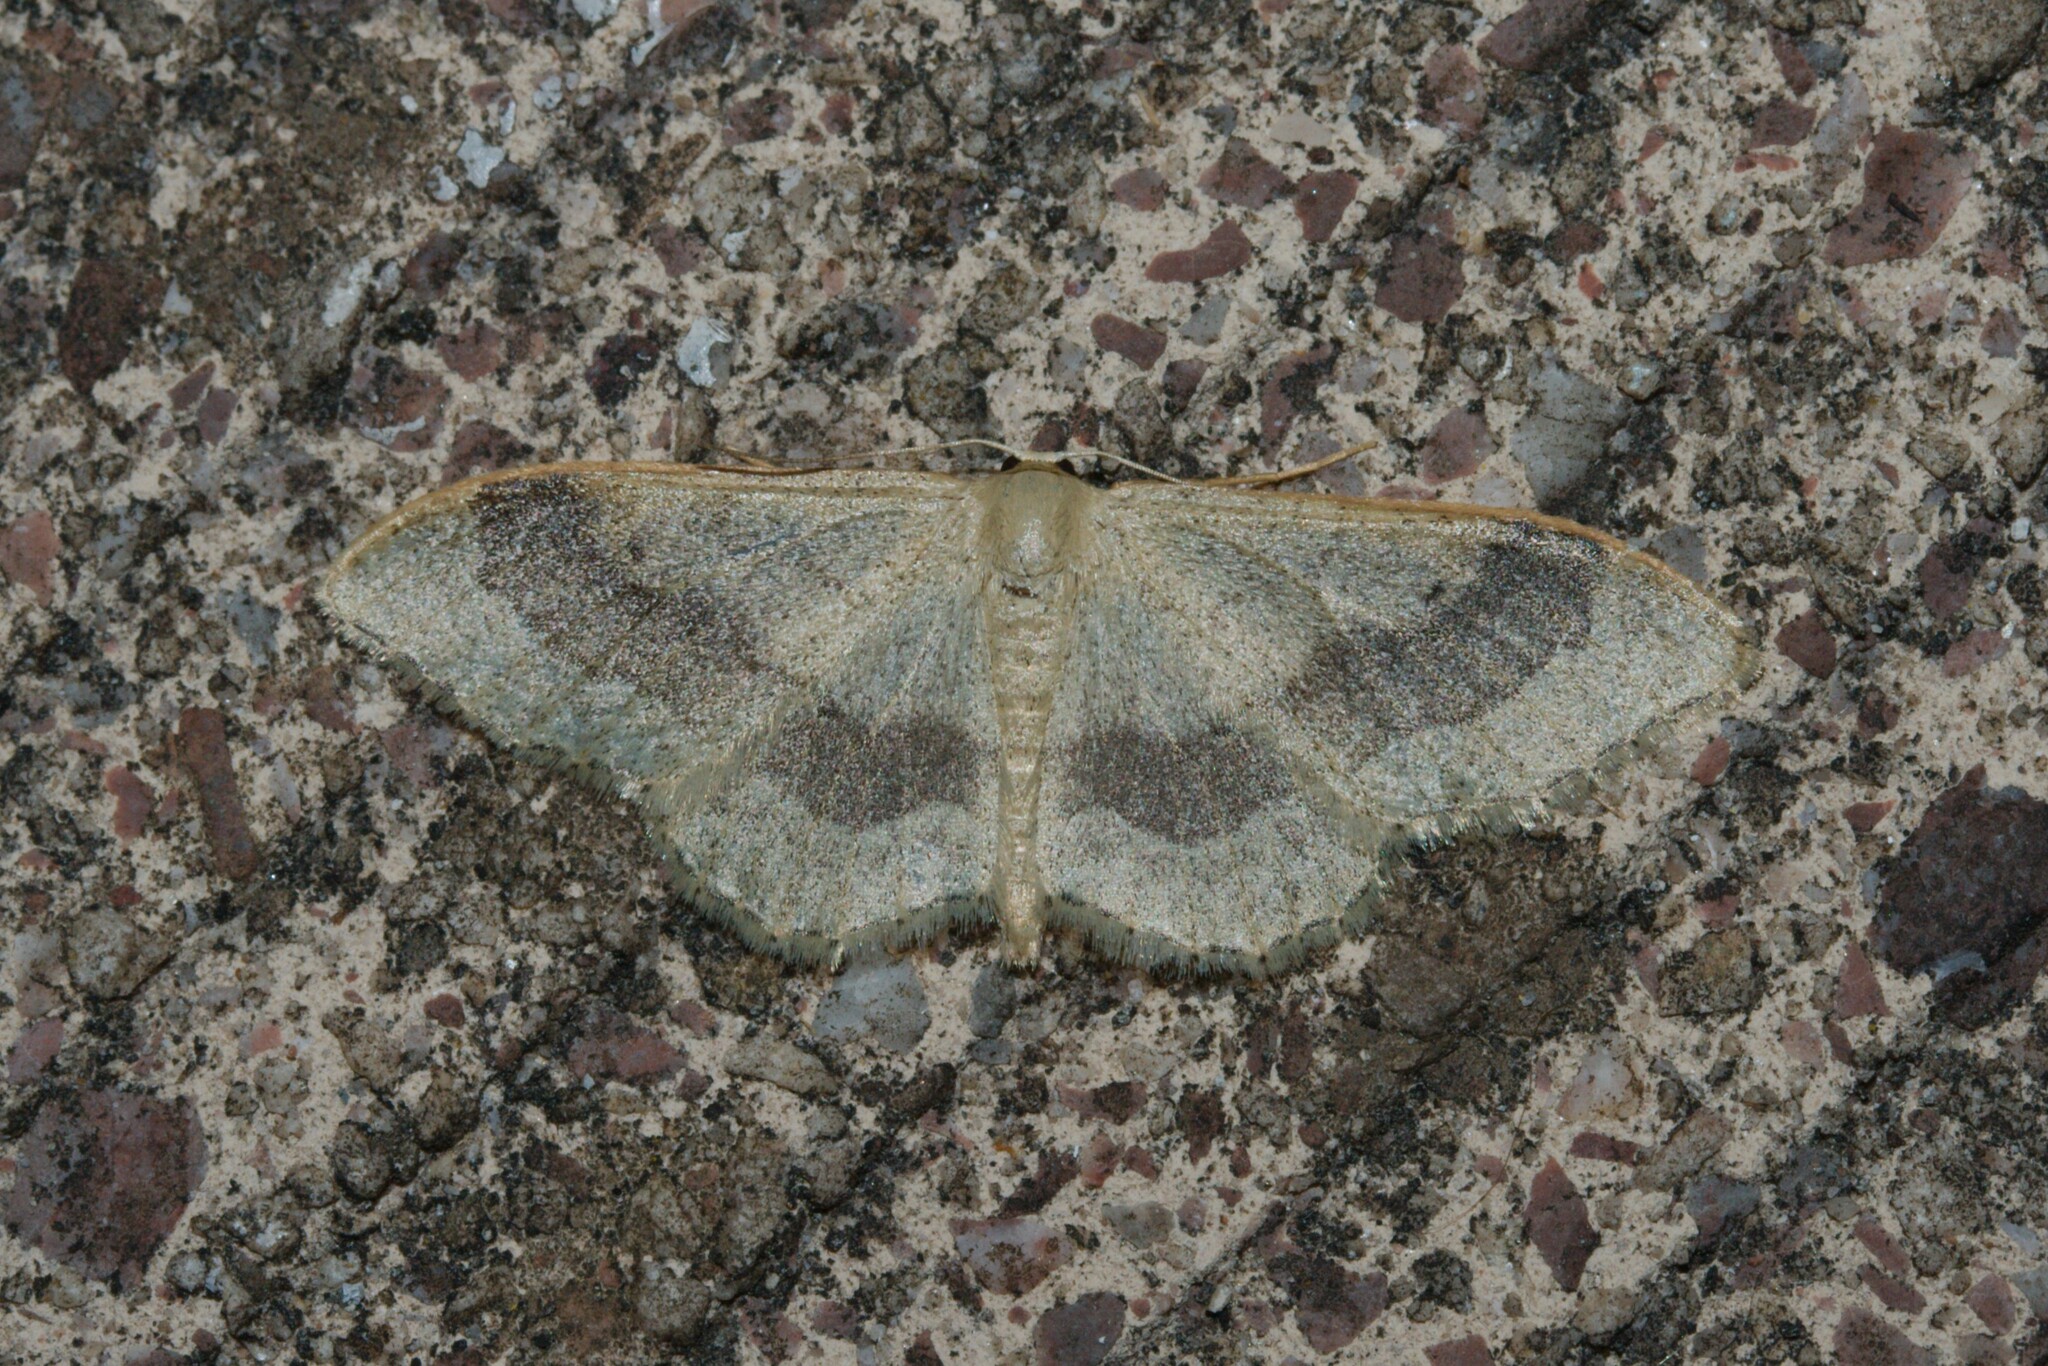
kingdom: Animalia
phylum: Arthropoda
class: Insecta
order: Lepidoptera
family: Geometridae
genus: Idaea
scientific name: Idaea aversata
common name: Riband wave
